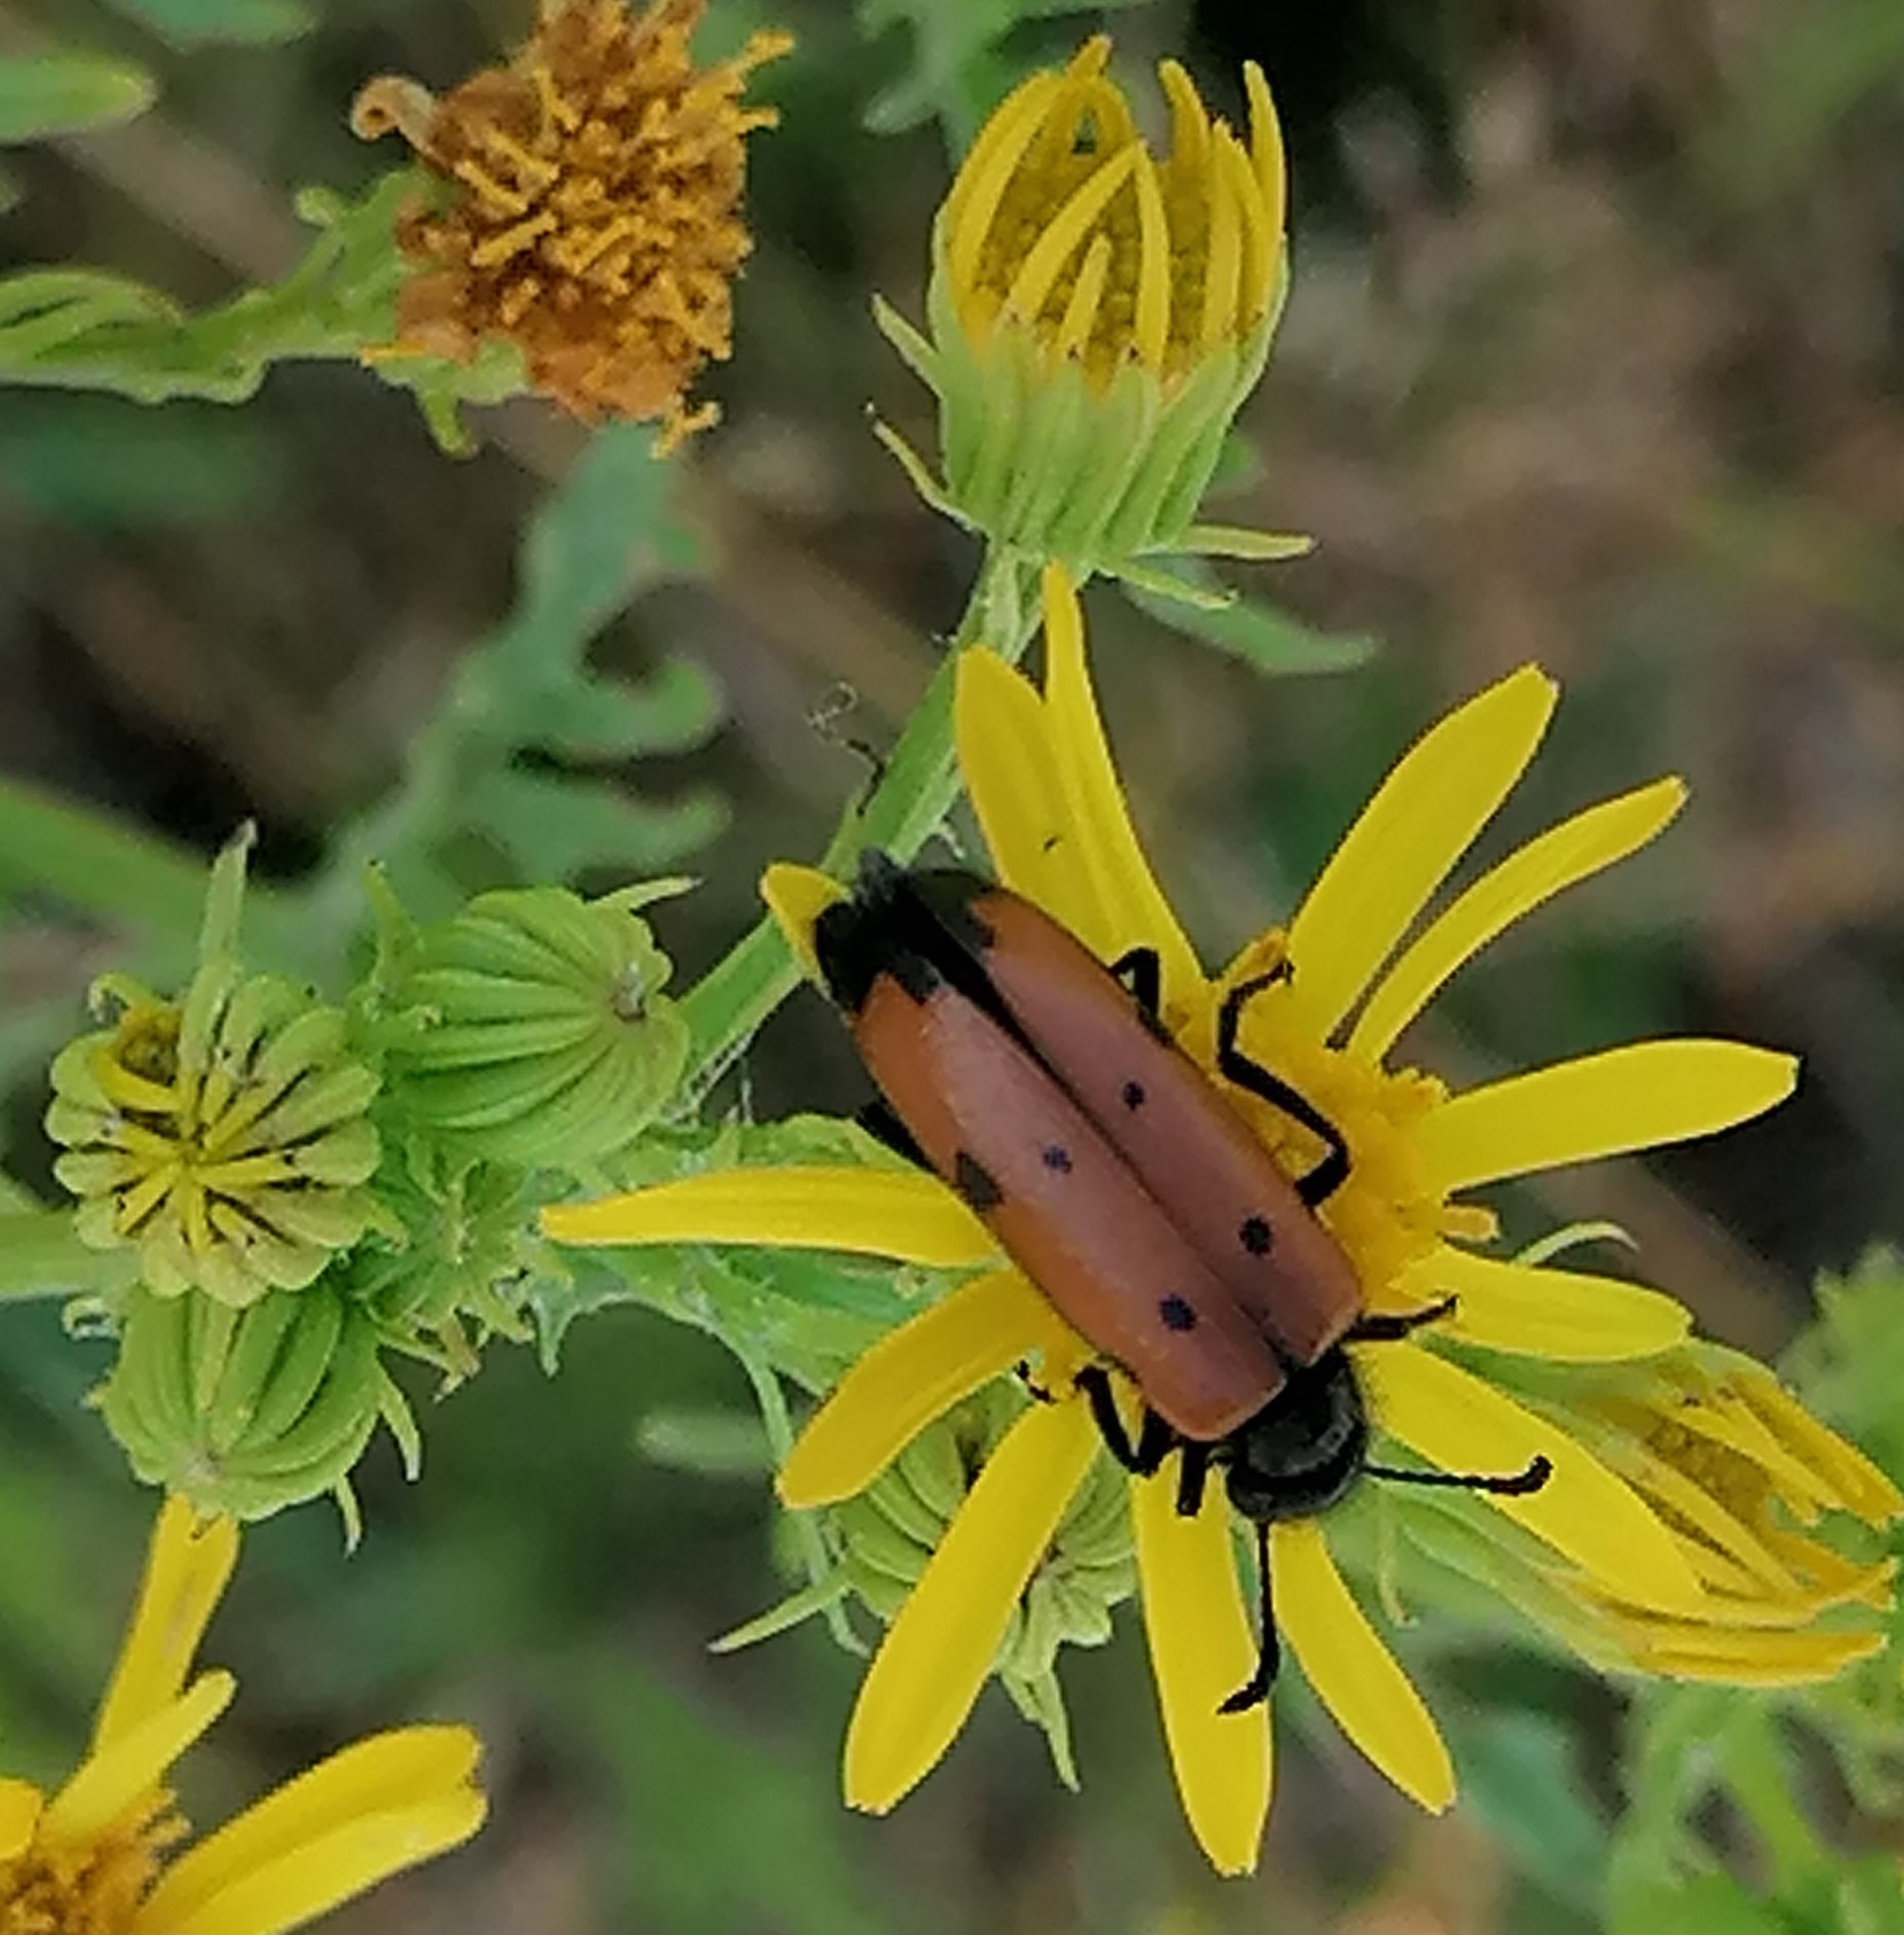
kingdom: Animalia
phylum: Arthropoda
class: Insecta
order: Coleoptera
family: Meloidae
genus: Mylabris
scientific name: Mylabris quadripunctata
